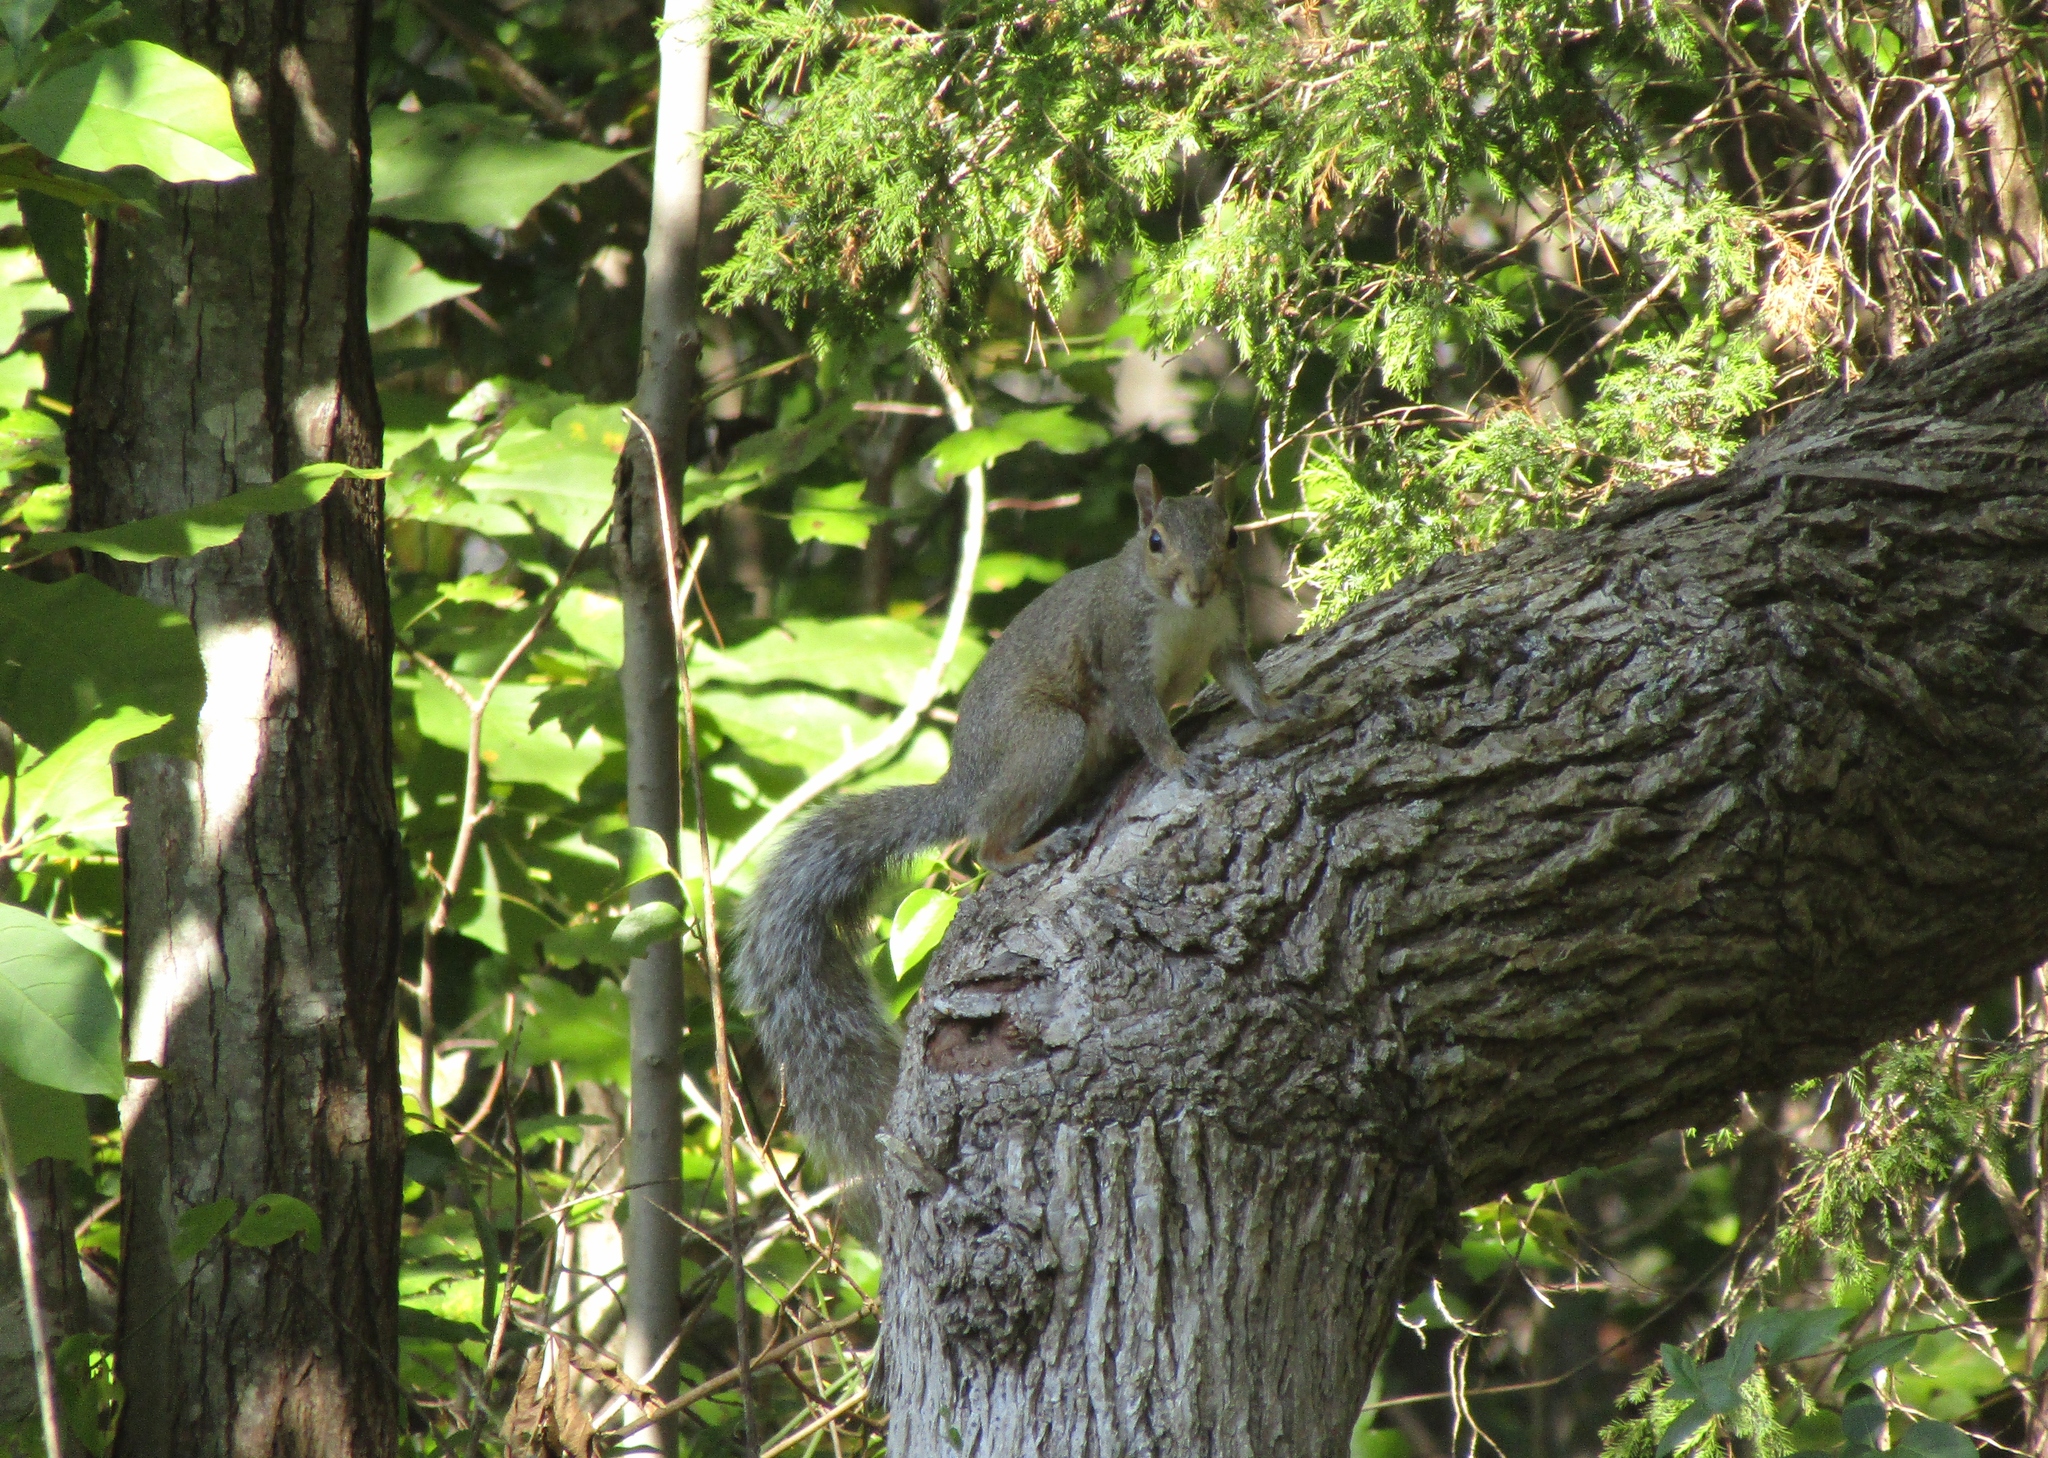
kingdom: Animalia
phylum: Chordata
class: Mammalia
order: Rodentia
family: Sciuridae
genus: Sciurus
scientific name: Sciurus carolinensis
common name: Eastern gray squirrel
